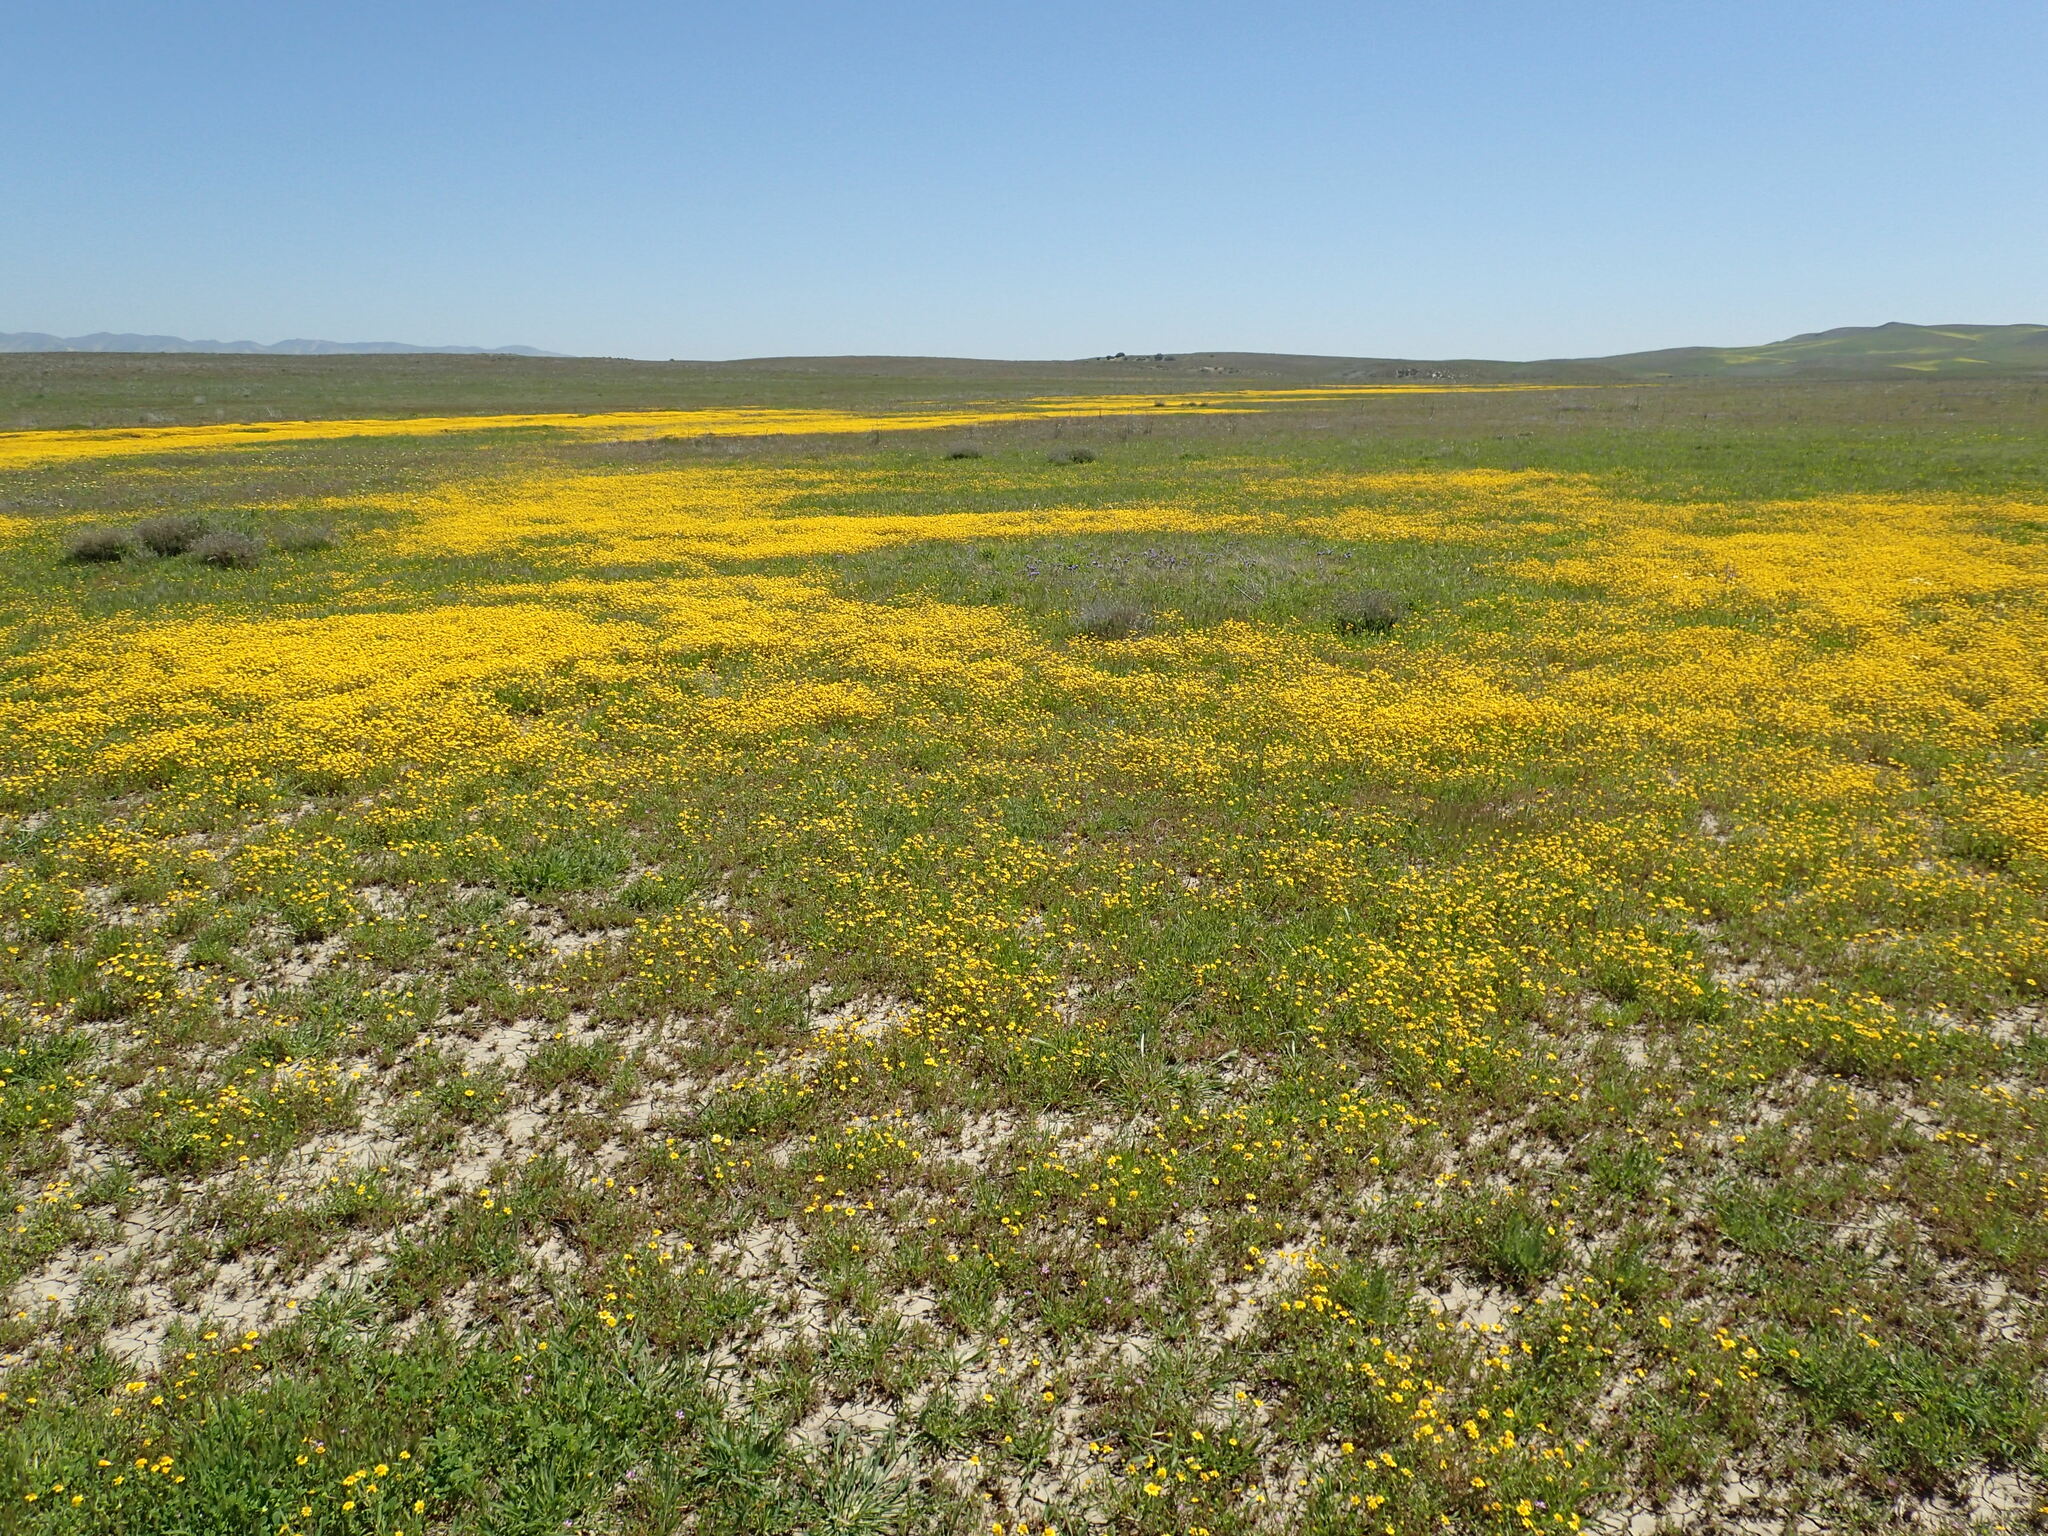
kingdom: Plantae
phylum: Tracheophyta
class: Magnoliopsida
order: Asterales
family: Asteraceae
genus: Lasthenia
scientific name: Lasthenia gracilis
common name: Common goldfields
